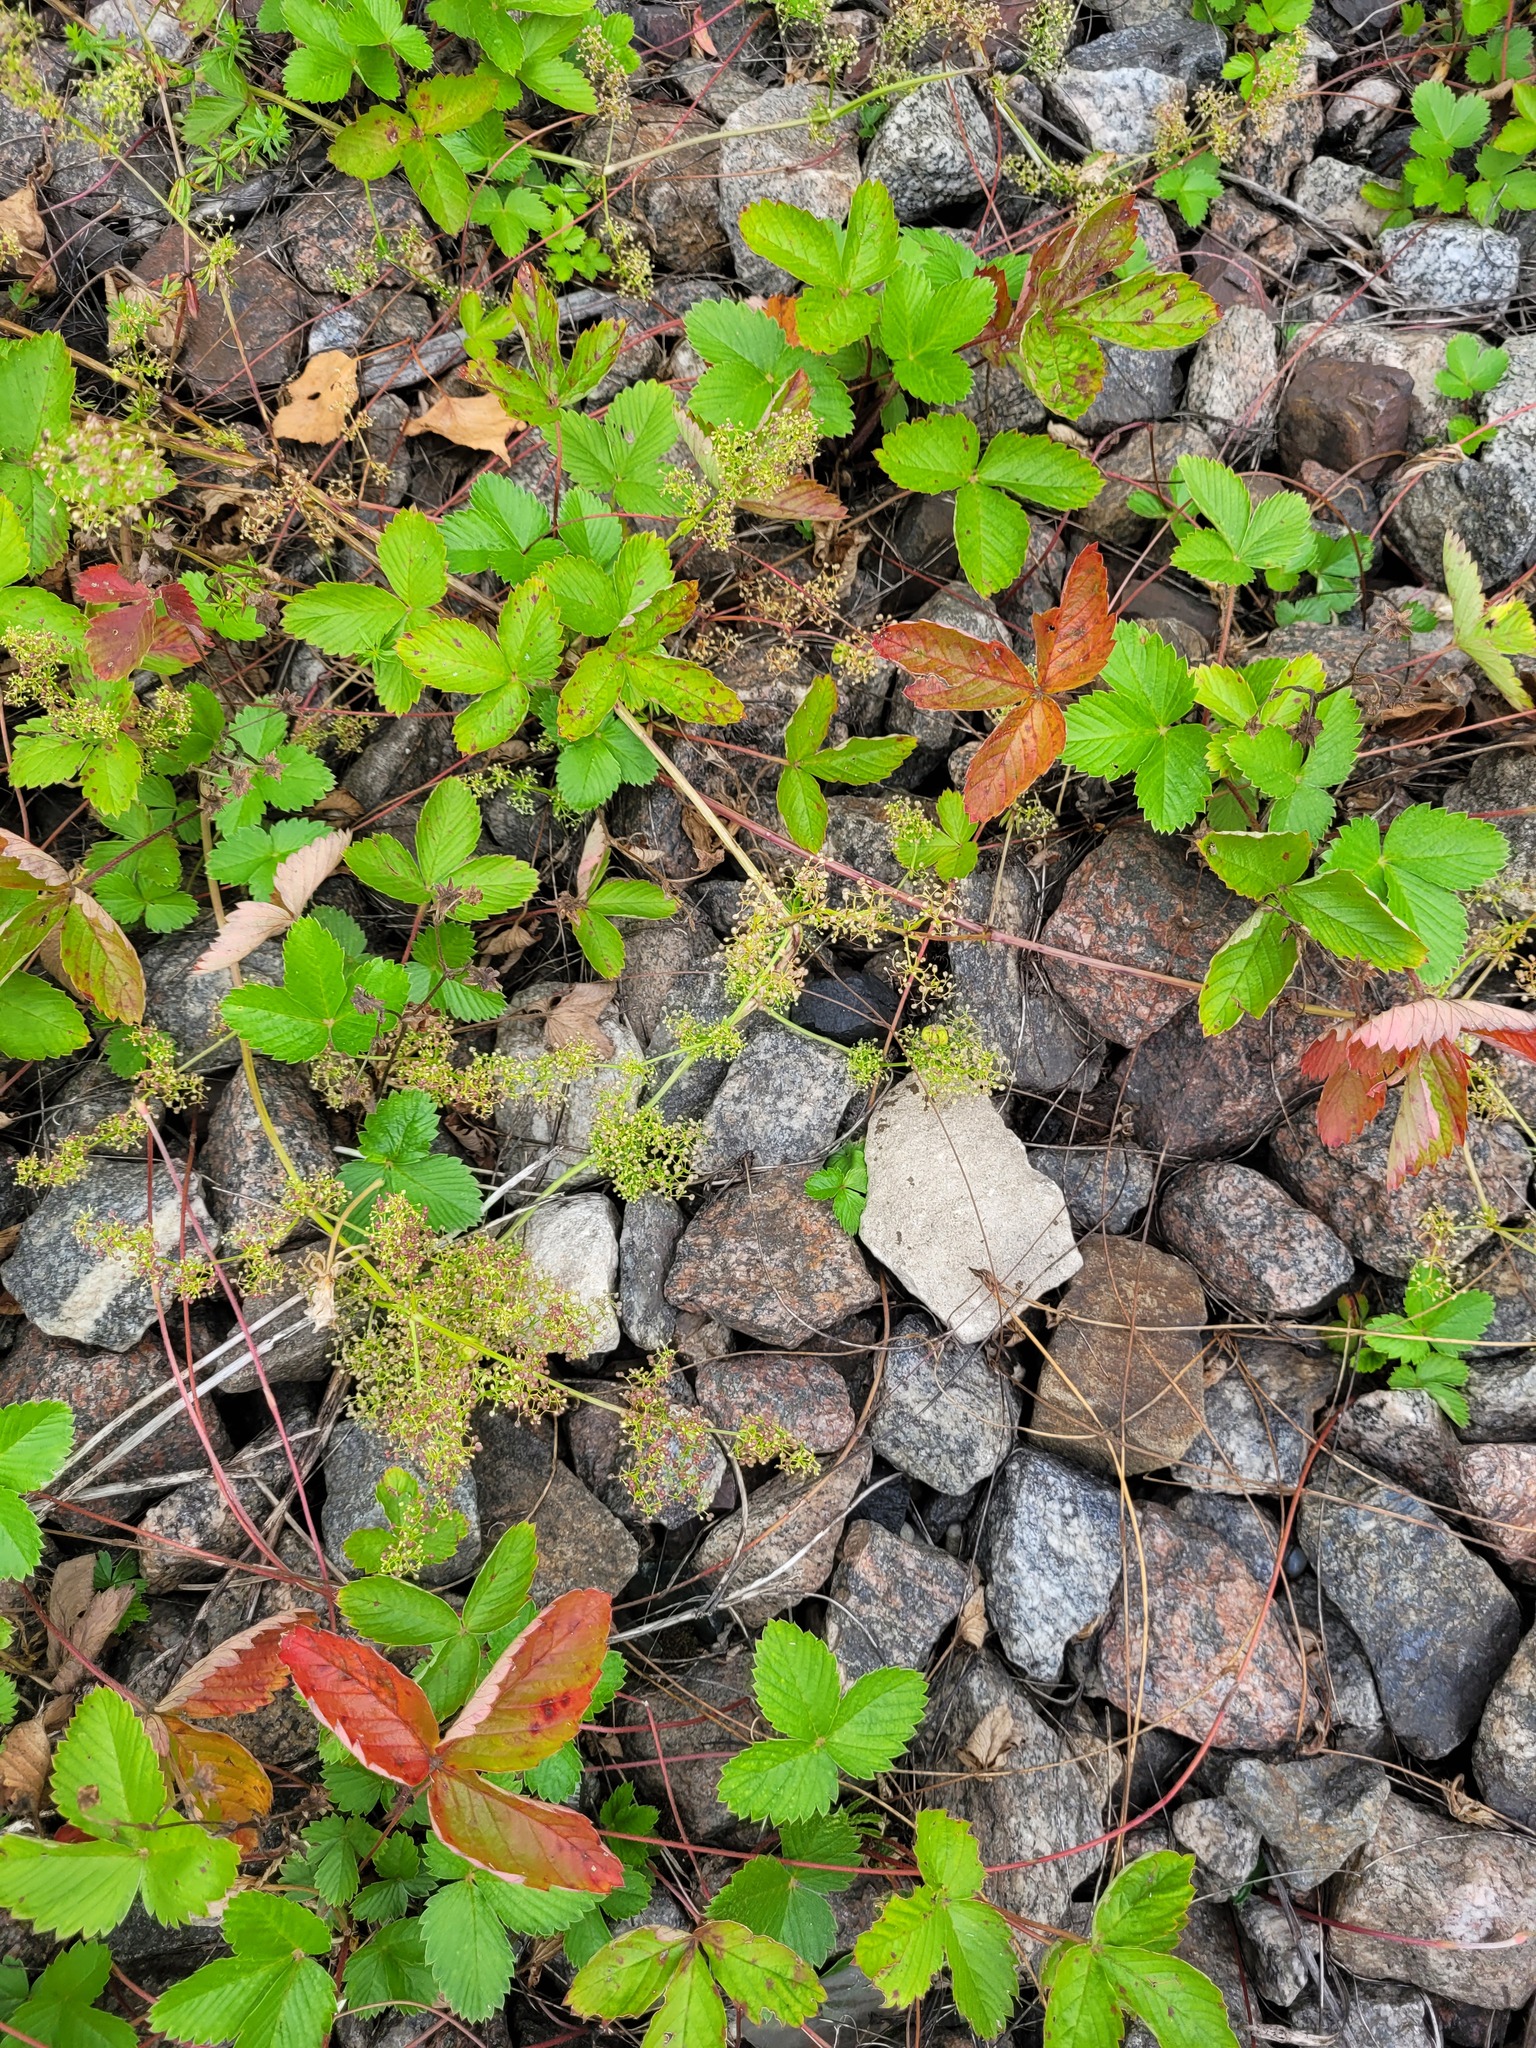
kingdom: Plantae
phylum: Tracheophyta
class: Magnoliopsida
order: Gentianales
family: Rubiaceae
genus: Galium
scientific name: Galium mollugo
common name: Hedge bedstraw
